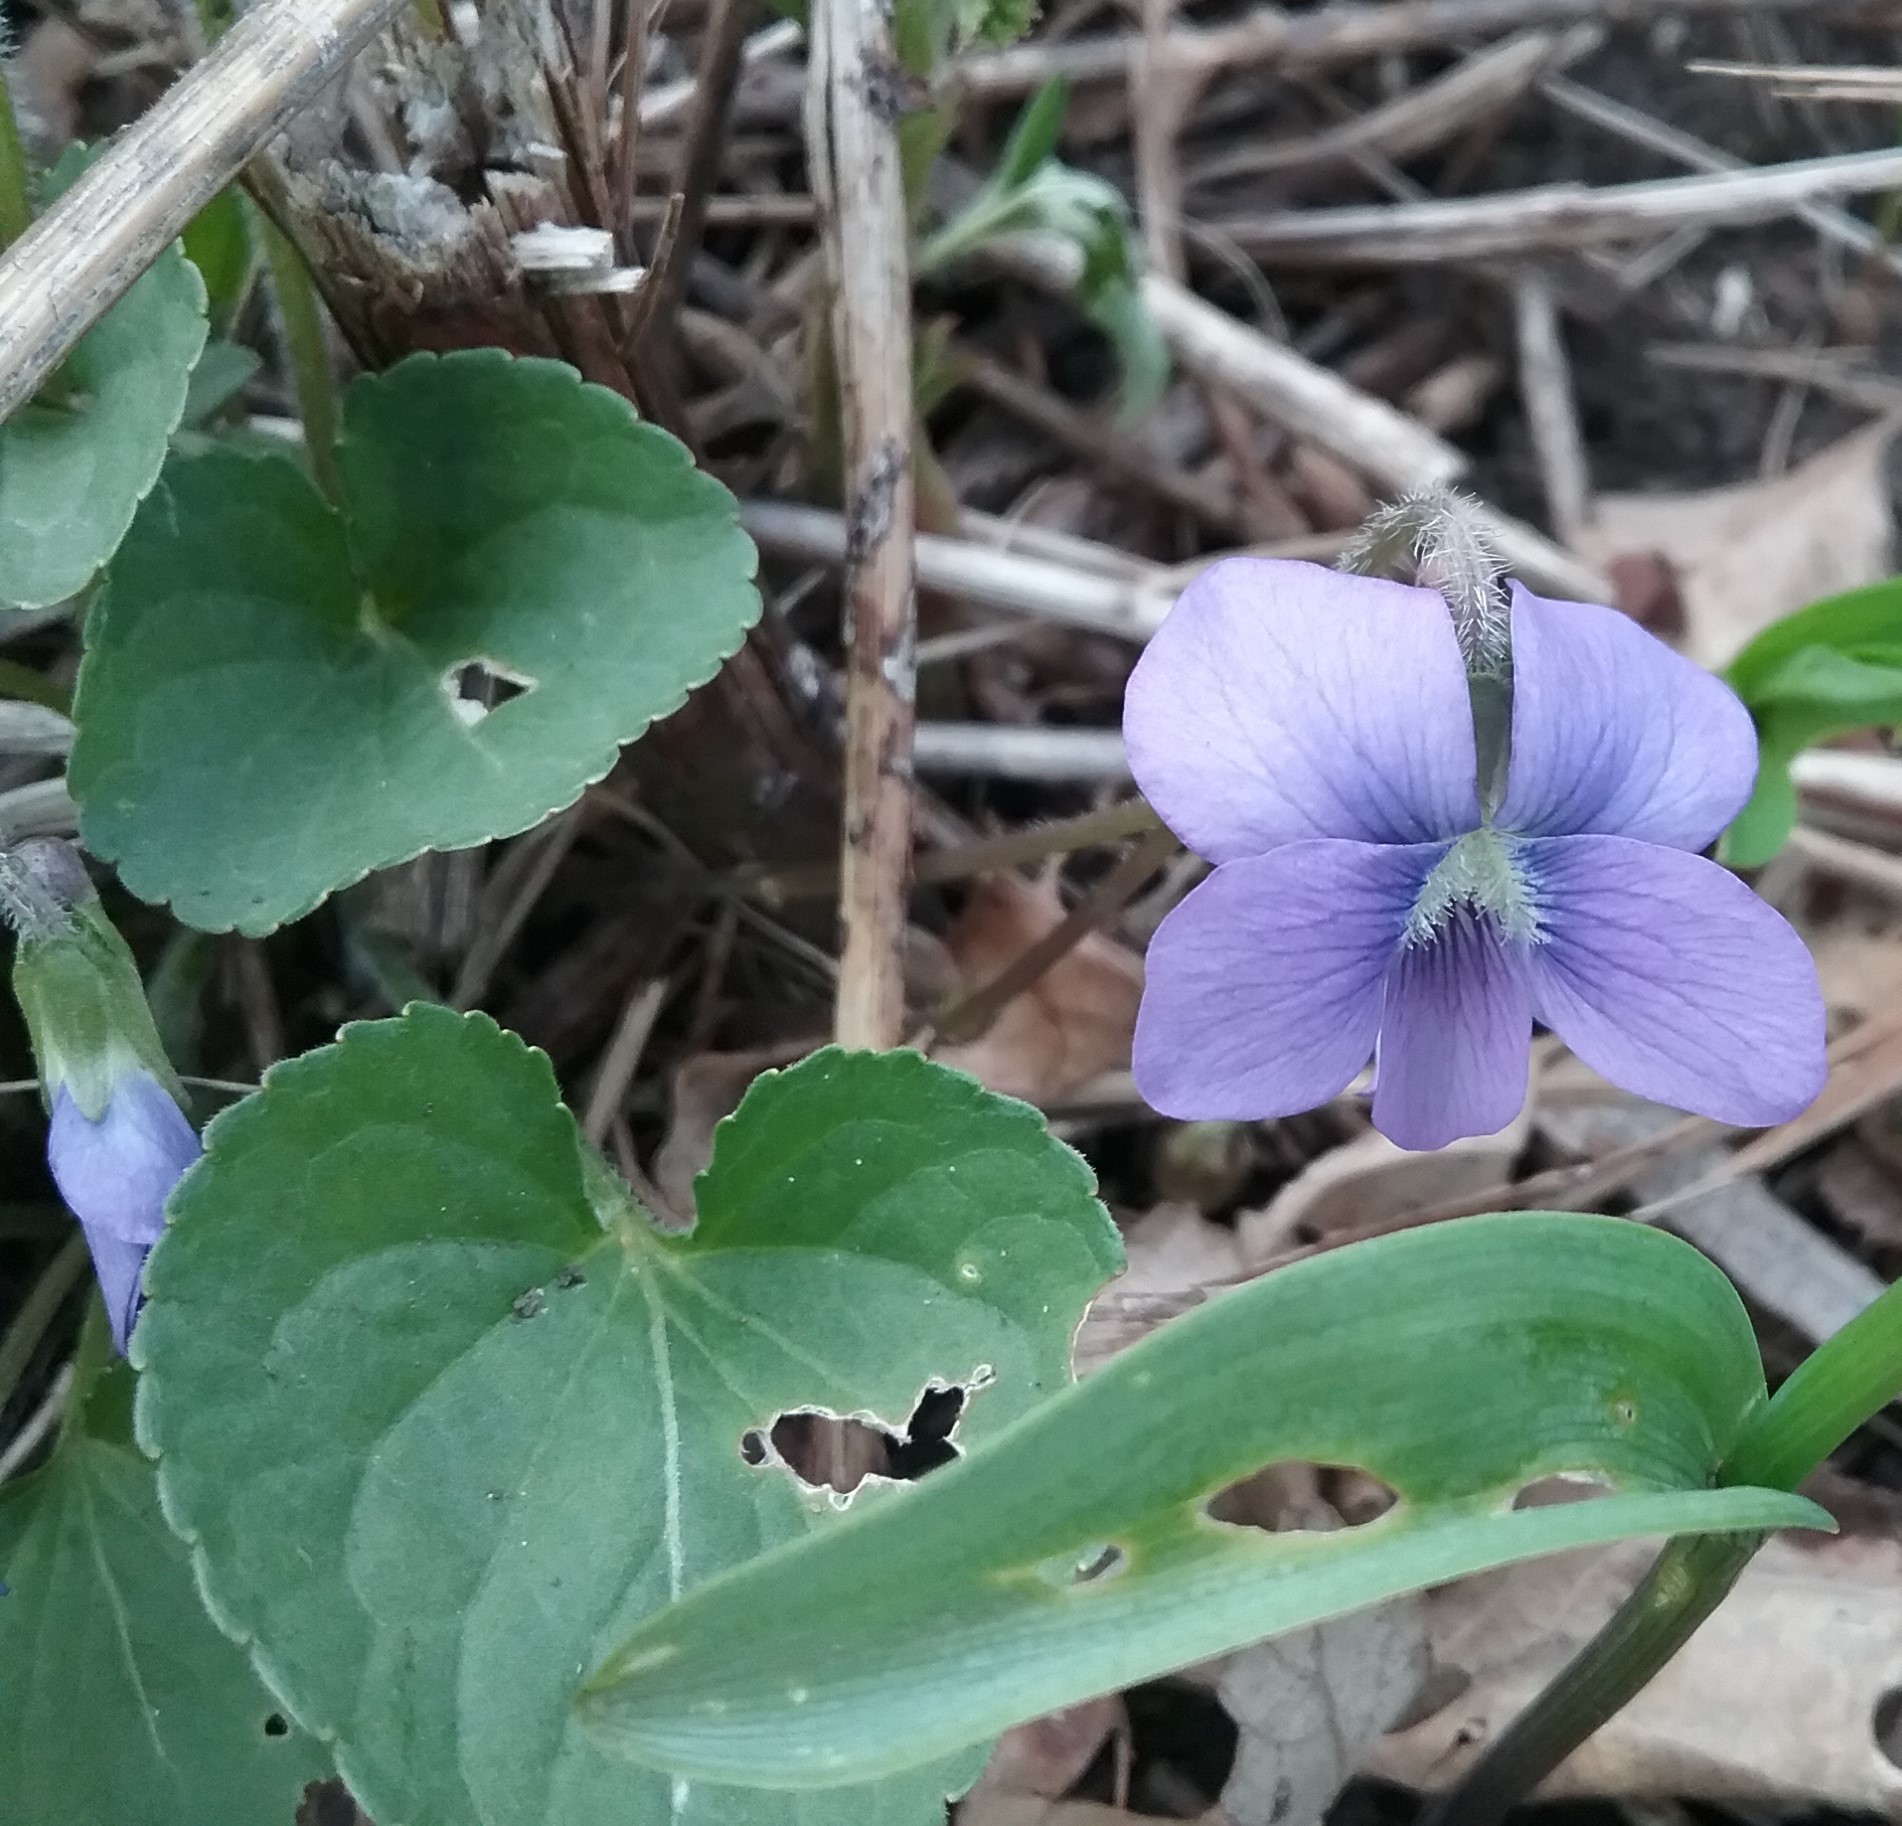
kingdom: Plantae
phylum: Tracheophyta
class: Magnoliopsida
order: Malpighiales
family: Violaceae
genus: Viola
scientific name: Viola sororia
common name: Dooryard violet
